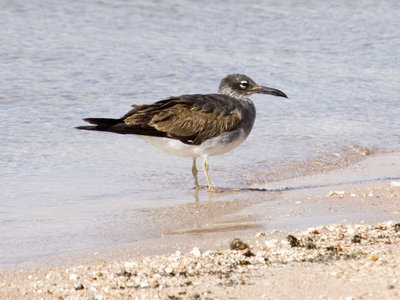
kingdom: Animalia
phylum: Chordata
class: Aves
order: Charadriiformes
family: Laridae
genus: Ichthyaetus
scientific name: Ichthyaetus leucophthalmus
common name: White-eyed gull
